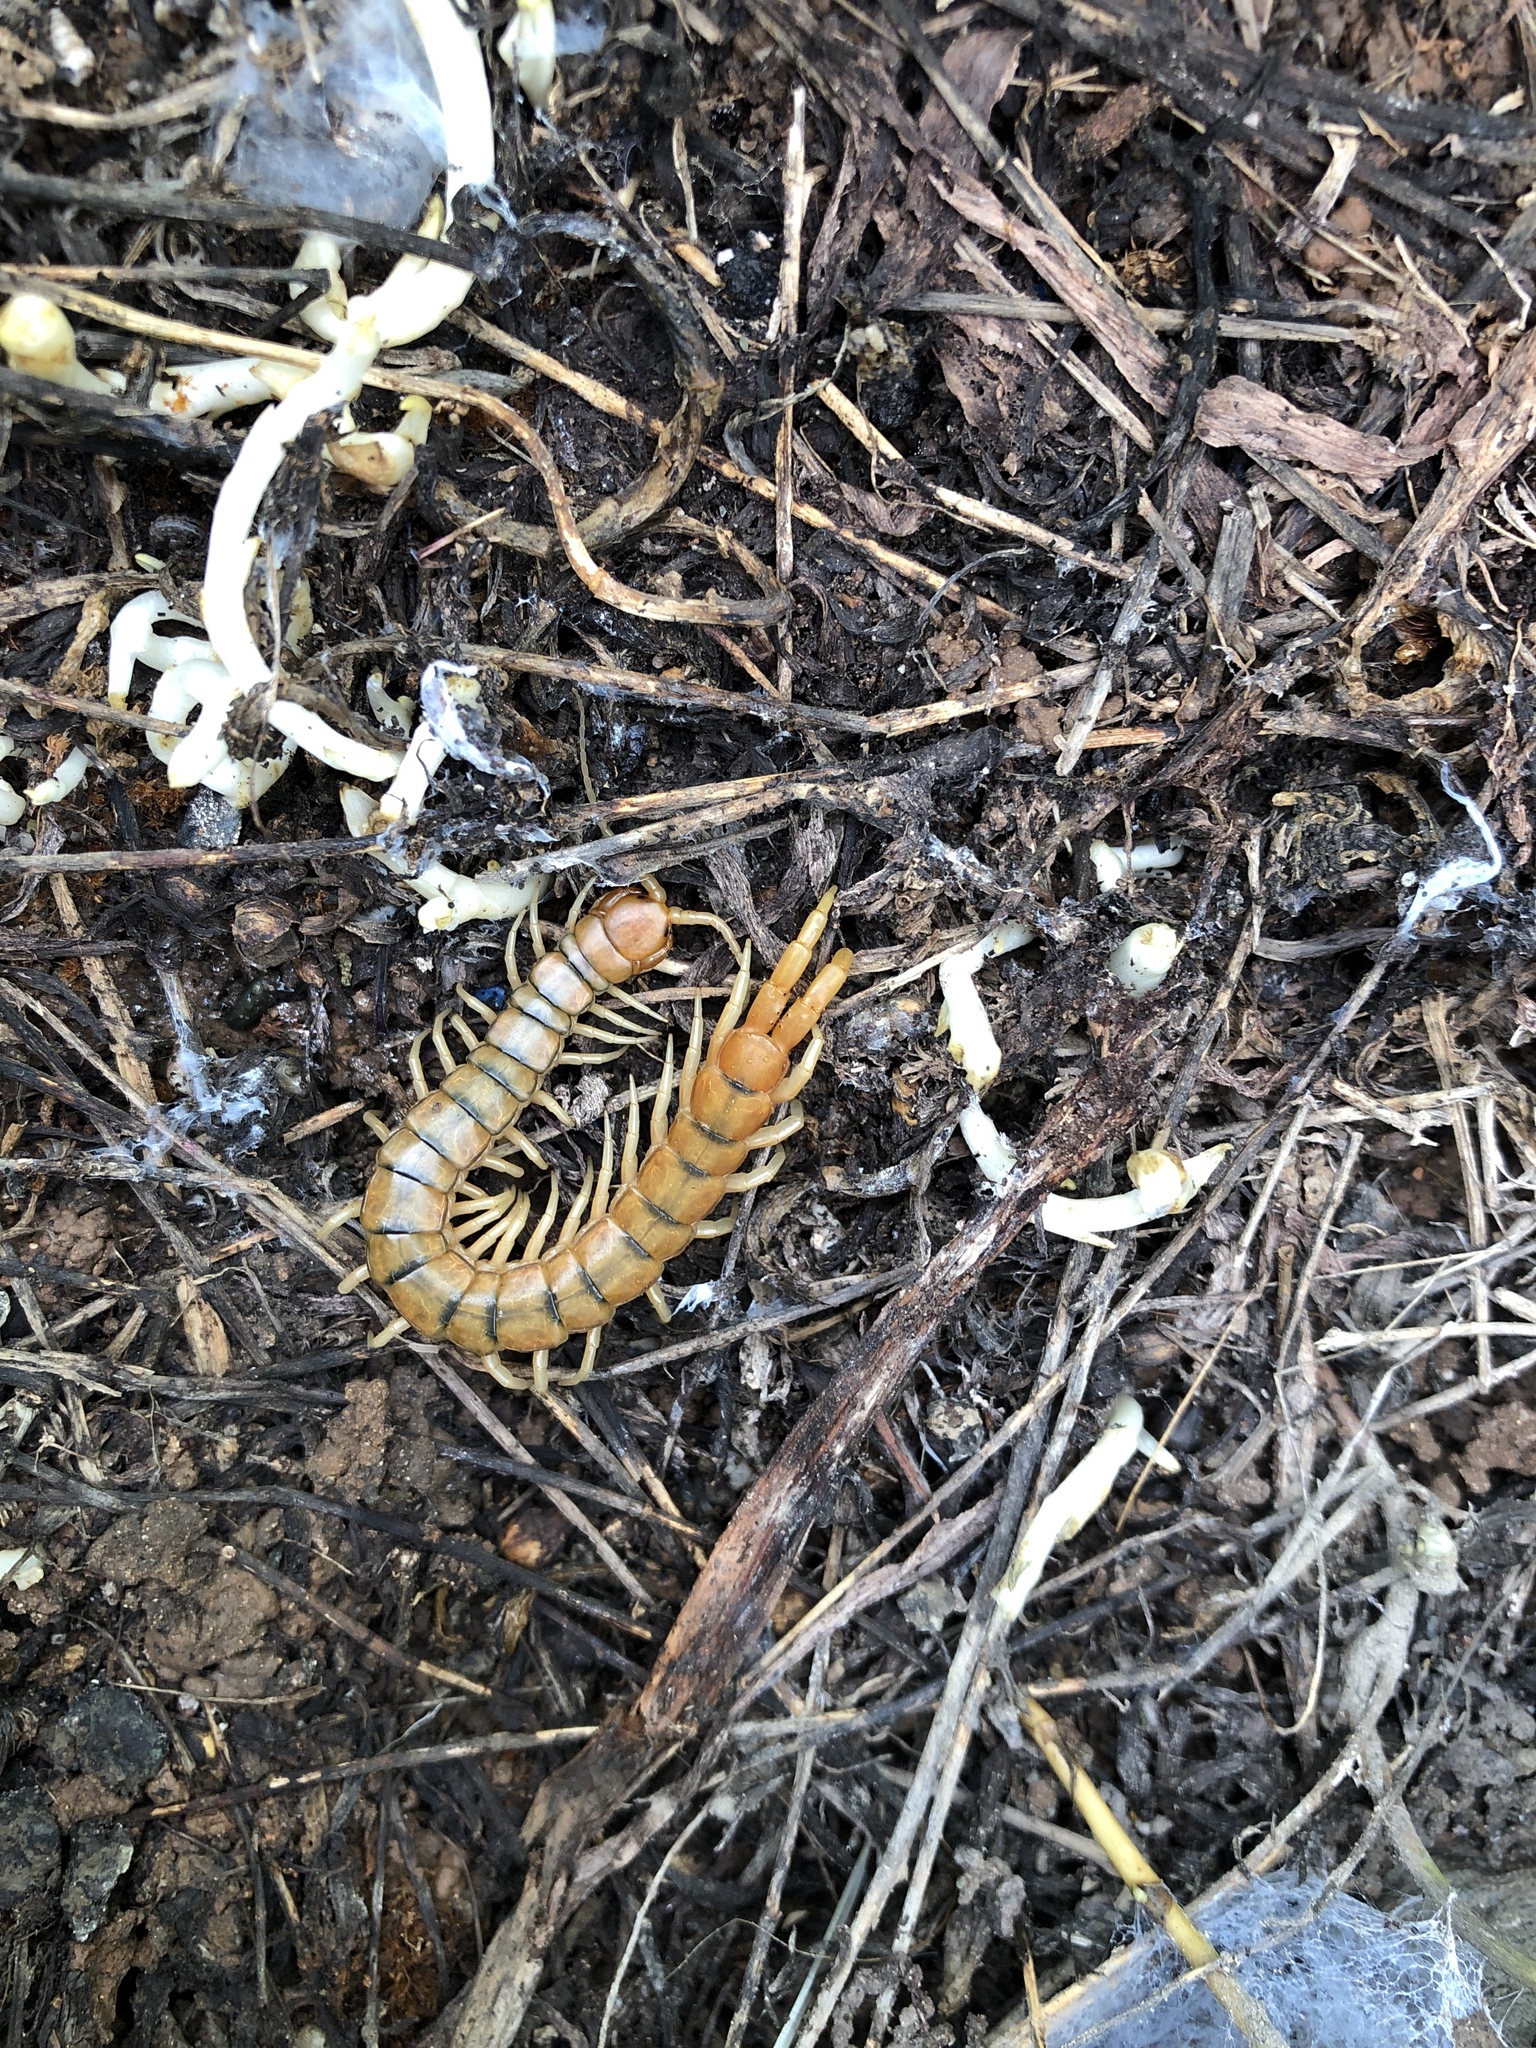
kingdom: Animalia
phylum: Arthropoda
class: Chilopoda
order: Scolopendromorpha
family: Scolopendridae
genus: Scolopendra
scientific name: Scolopendra cingulata
